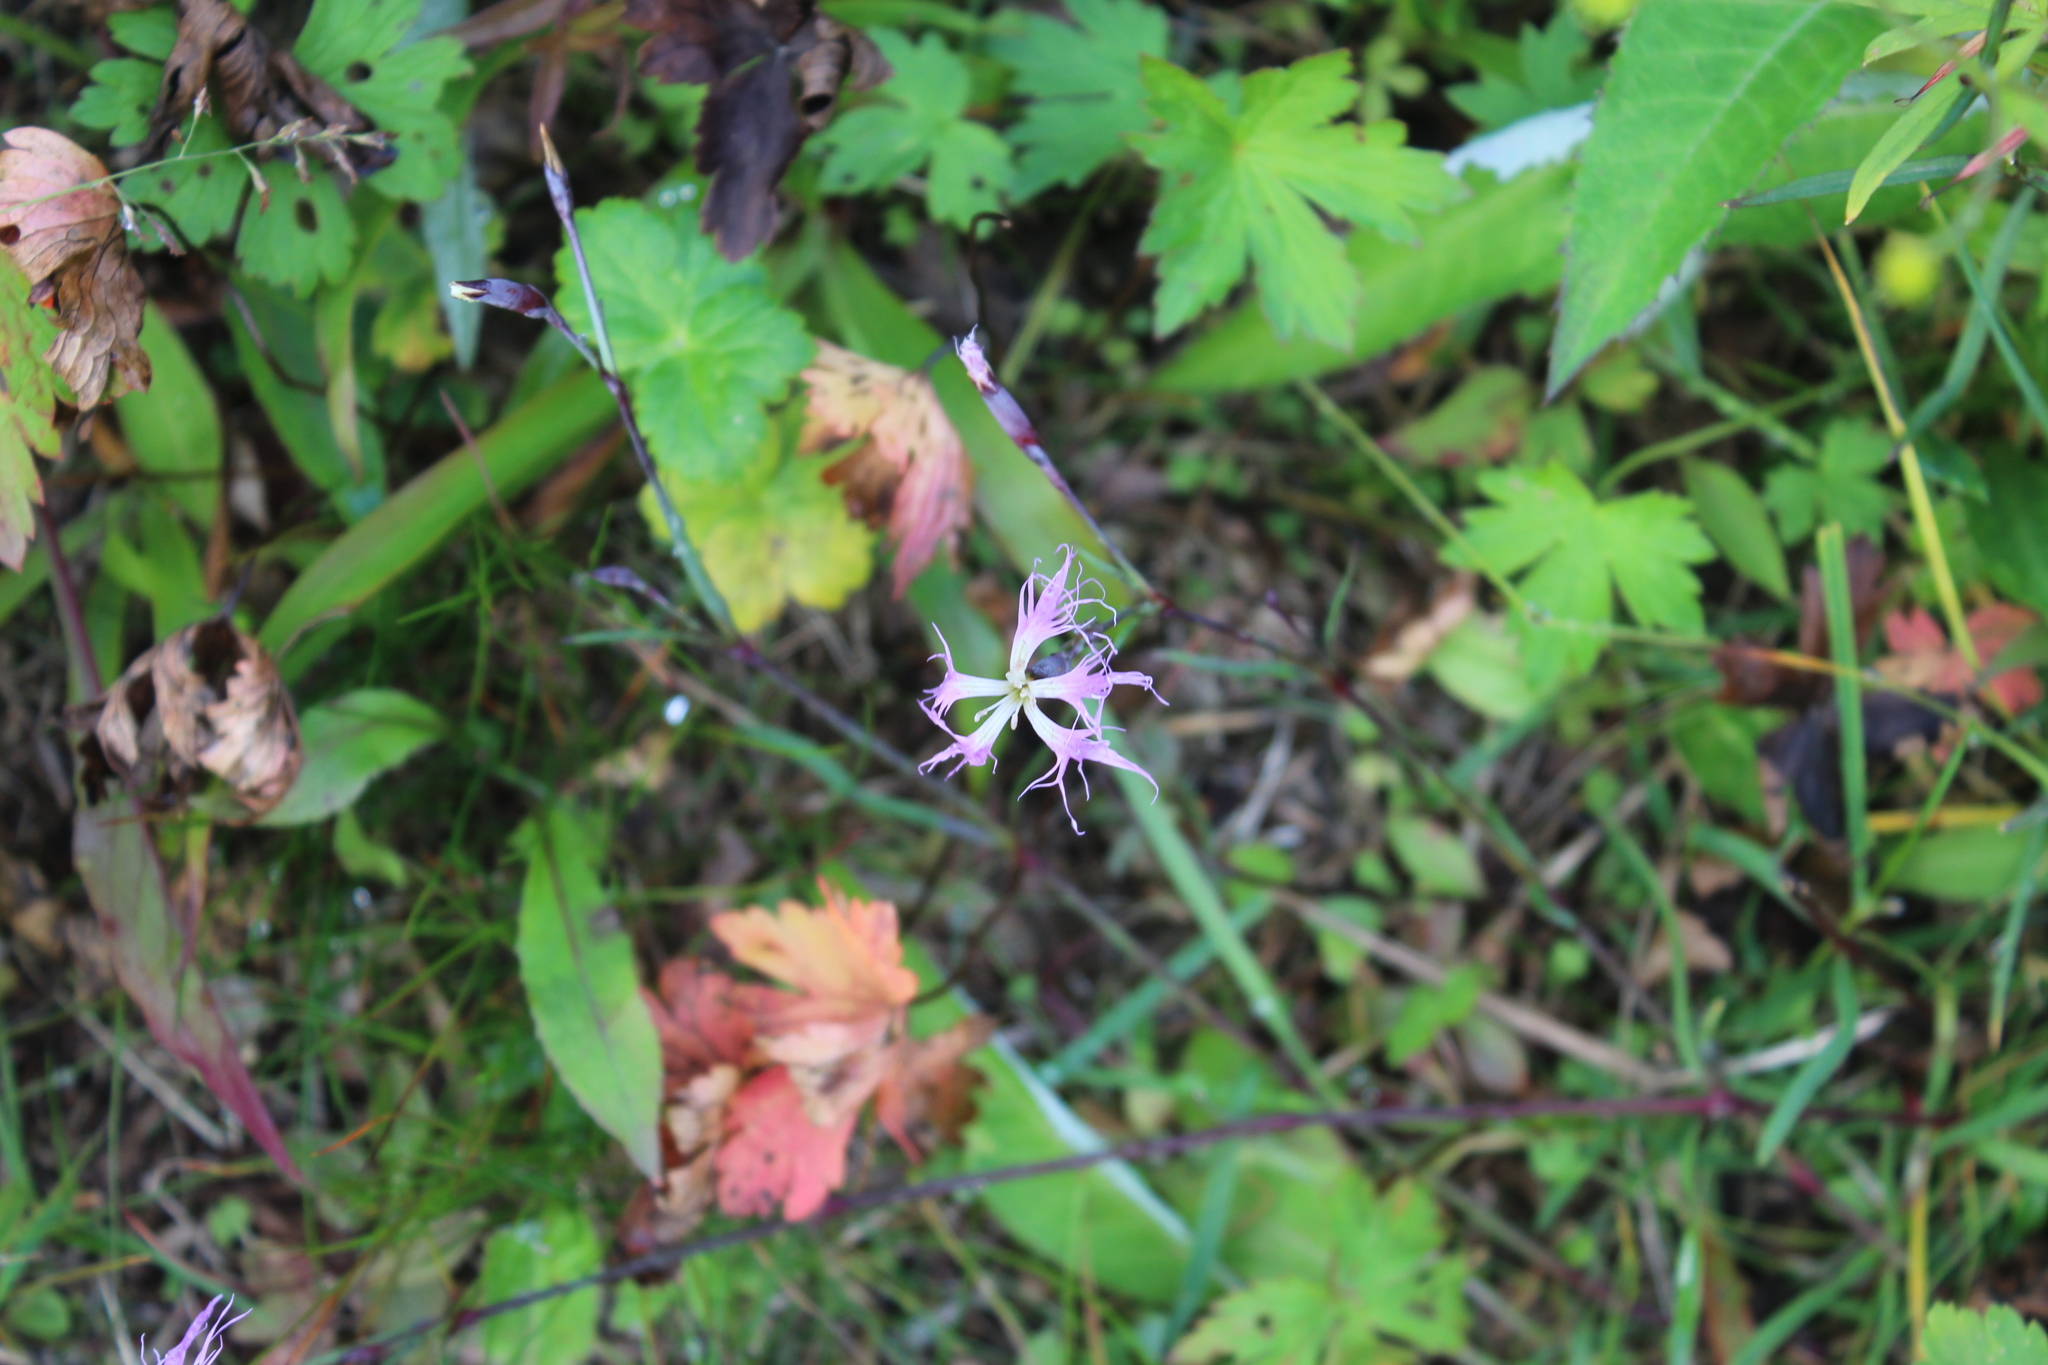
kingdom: Plantae
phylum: Tracheophyta
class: Magnoliopsida
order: Caryophyllales
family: Caryophyllaceae
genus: Dianthus
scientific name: Dianthus superbus
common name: Fringed pink
